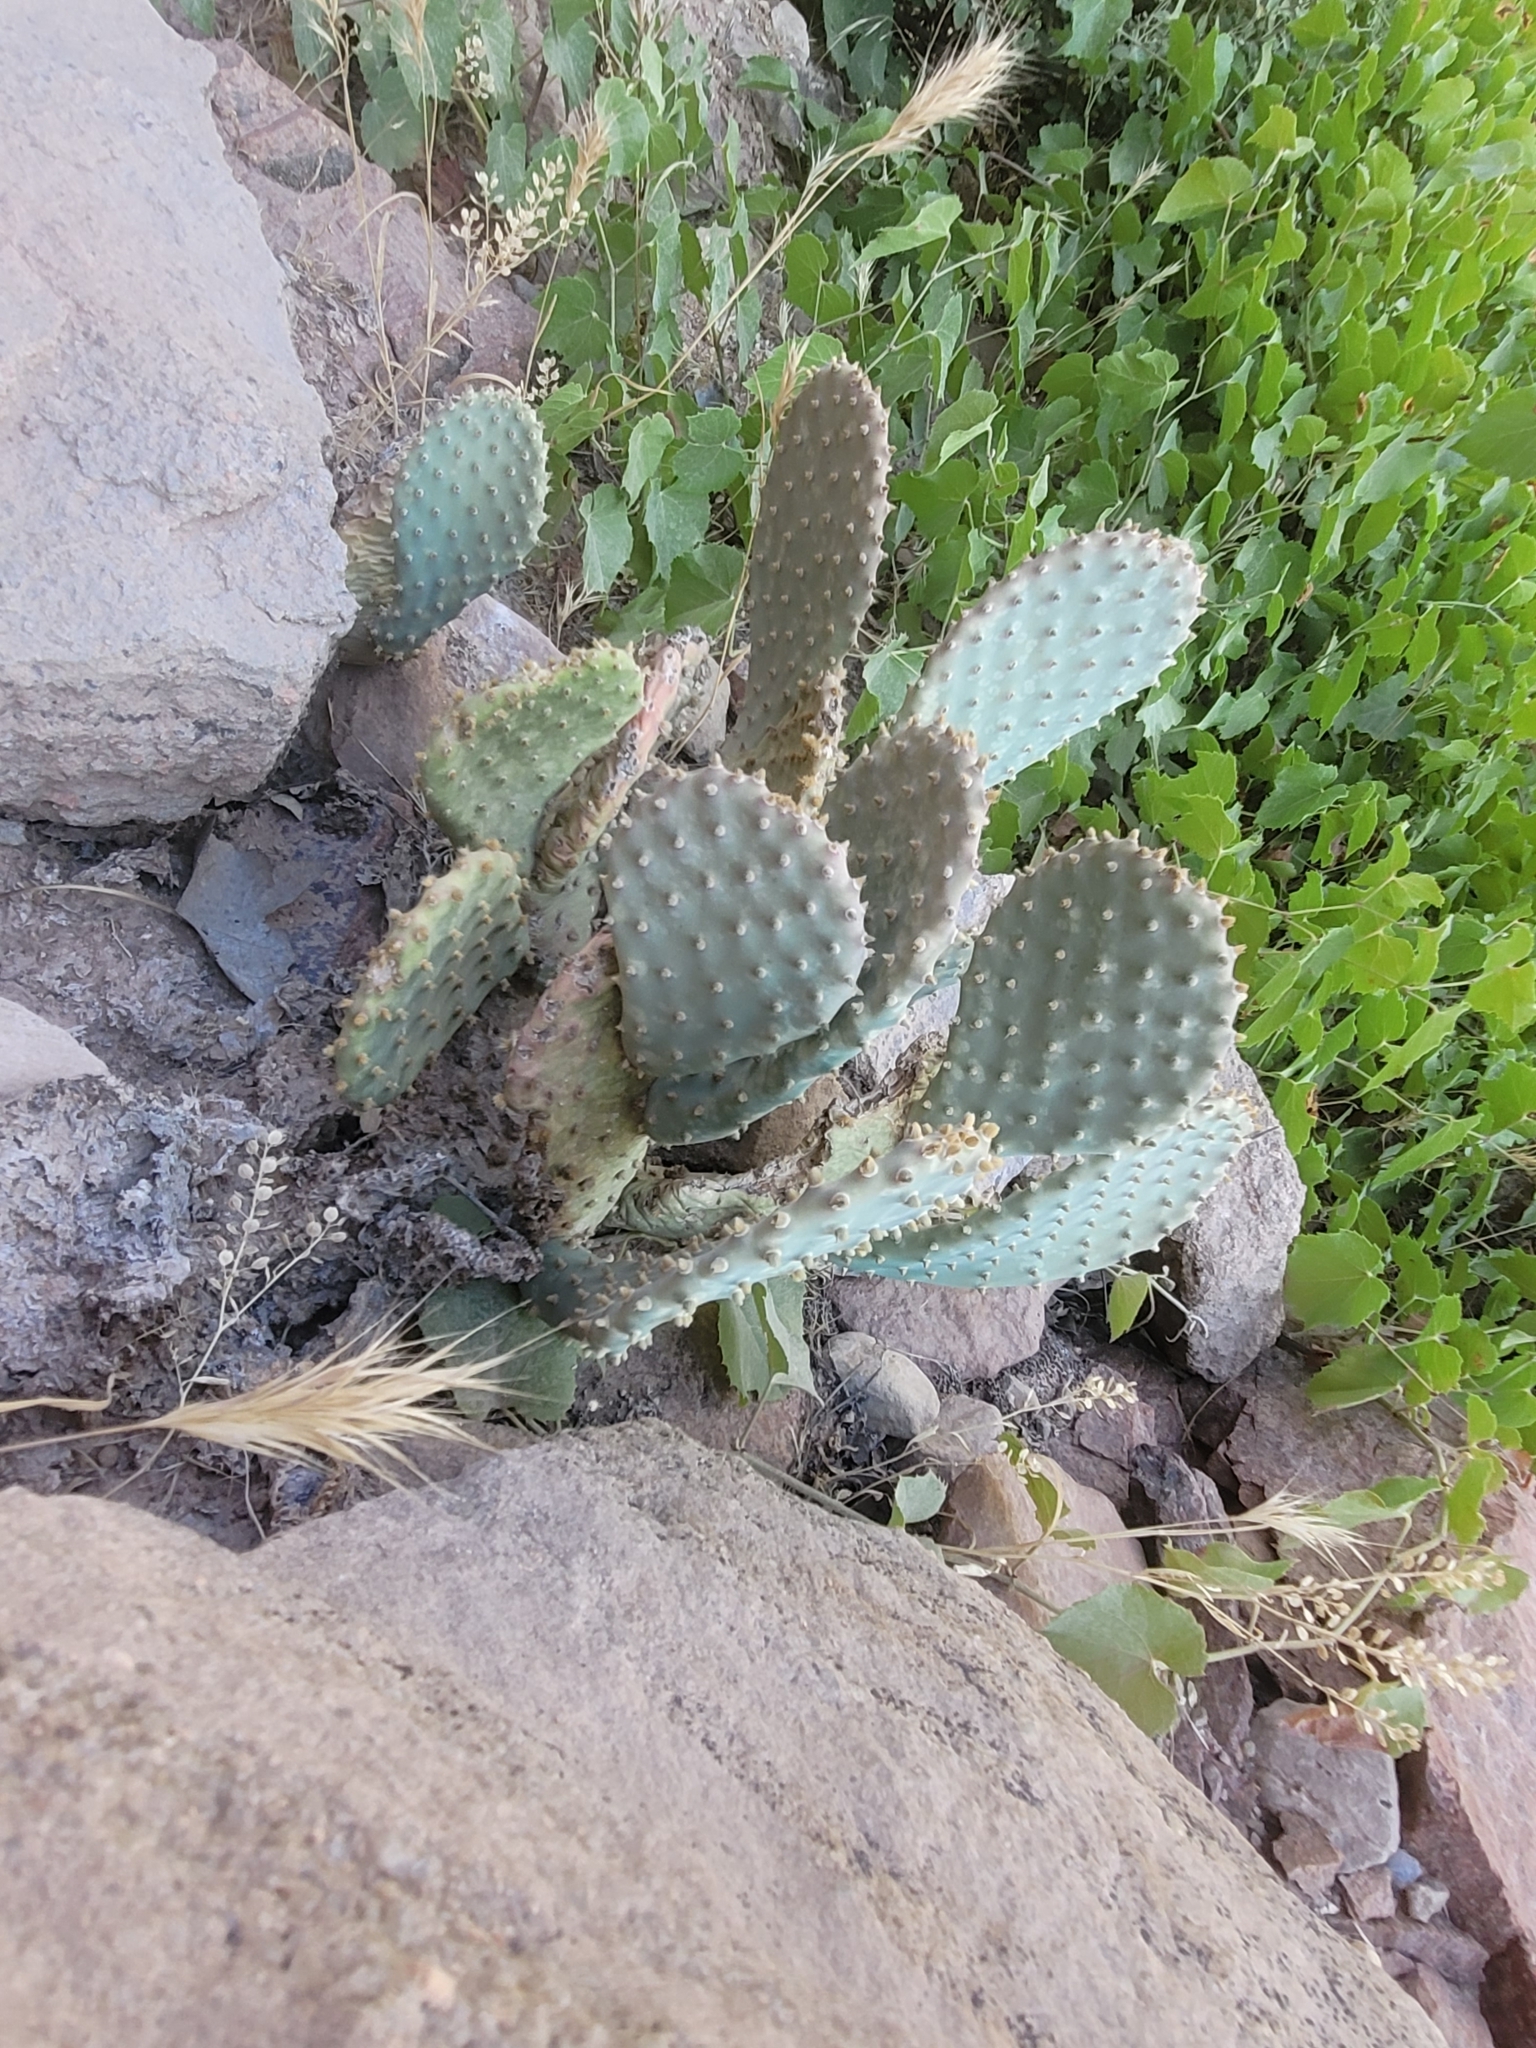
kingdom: Plantae
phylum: Tracheophyta
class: Magnoliopsida
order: Caryophyllales
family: Cactaceae
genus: Opuntia
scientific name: Opuntia basilaris
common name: Beavertail prickly-pear
